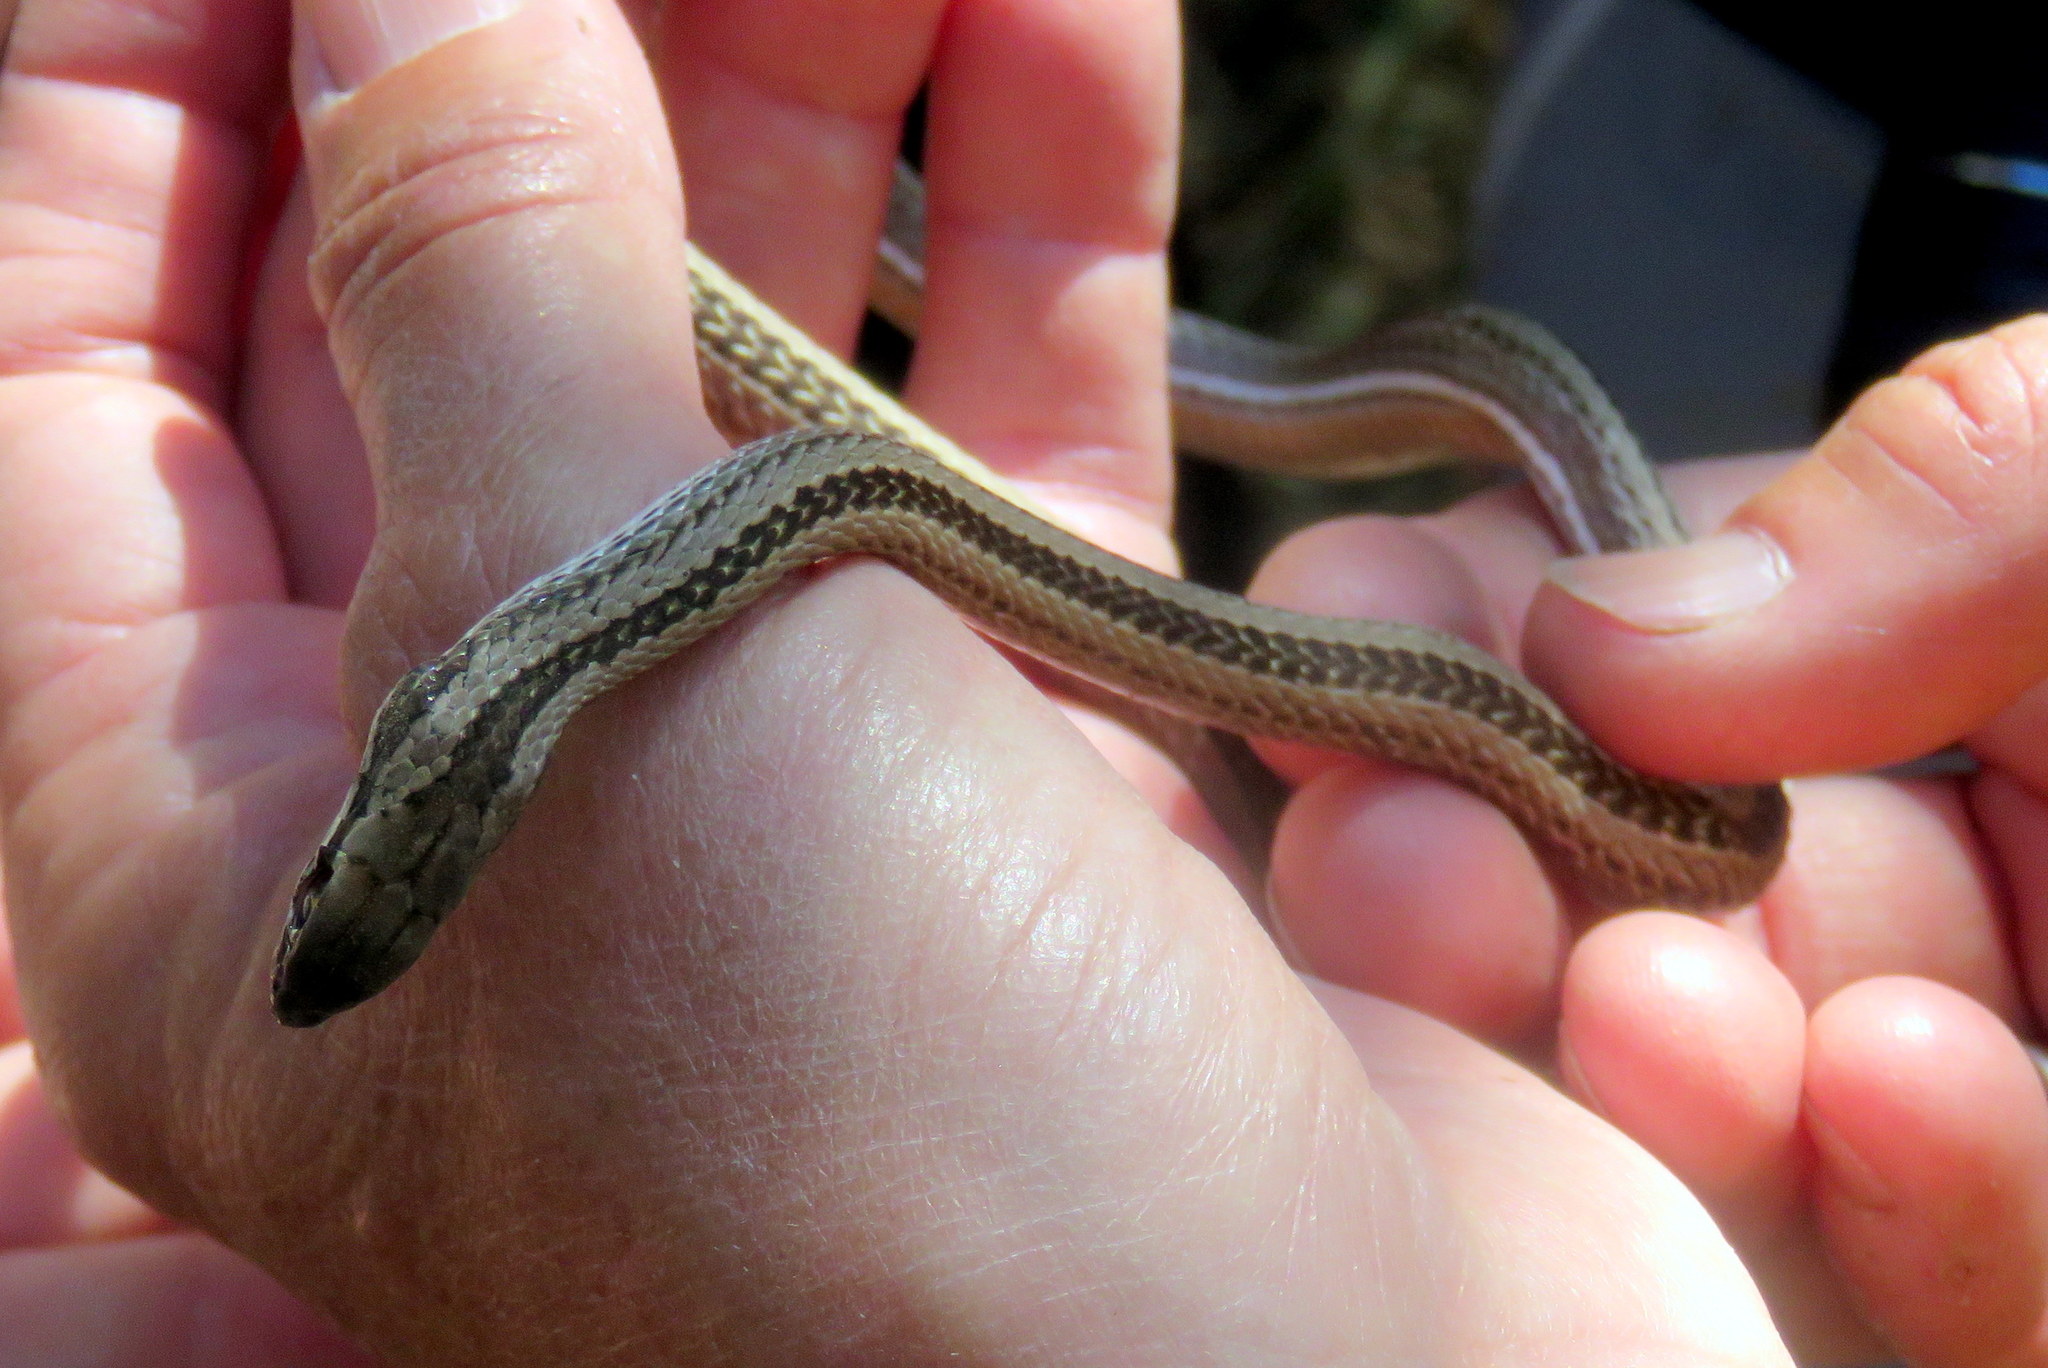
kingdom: Animalia
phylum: Chordata
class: Squamata
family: Colubridae
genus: Philodryas
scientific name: Philodryas psammophidea
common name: Günther's green racer
